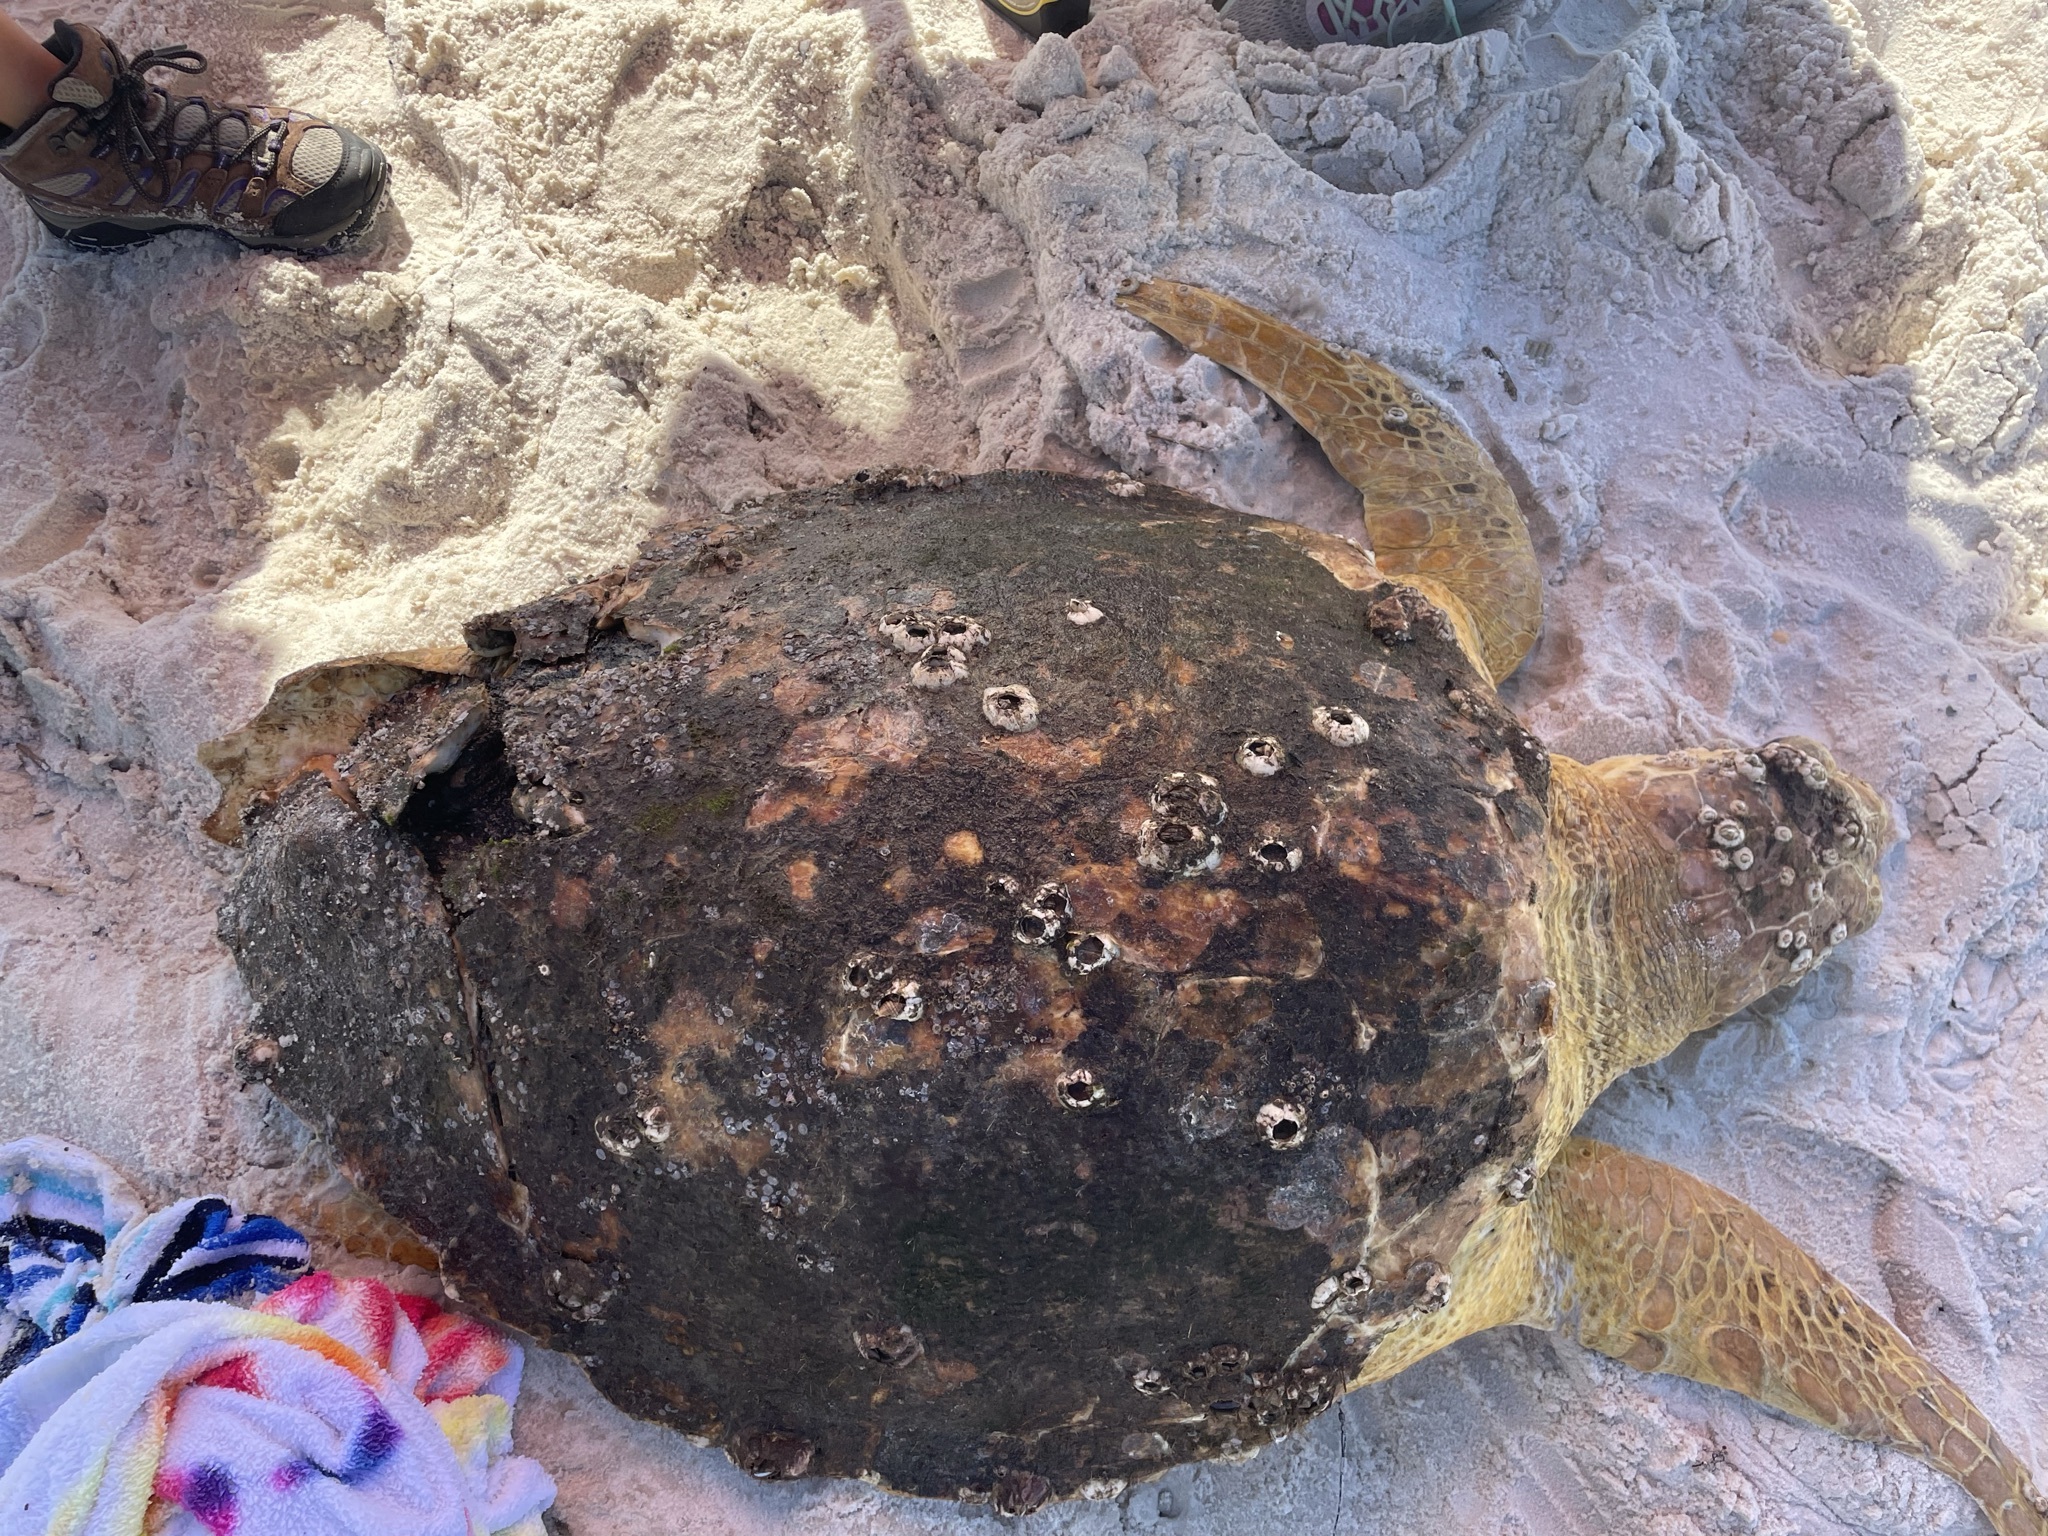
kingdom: Animalia
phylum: Chordata
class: Testudines
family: Cheloniidae
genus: Caretta
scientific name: Caretta caretta
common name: Loggerhead sea turtle
